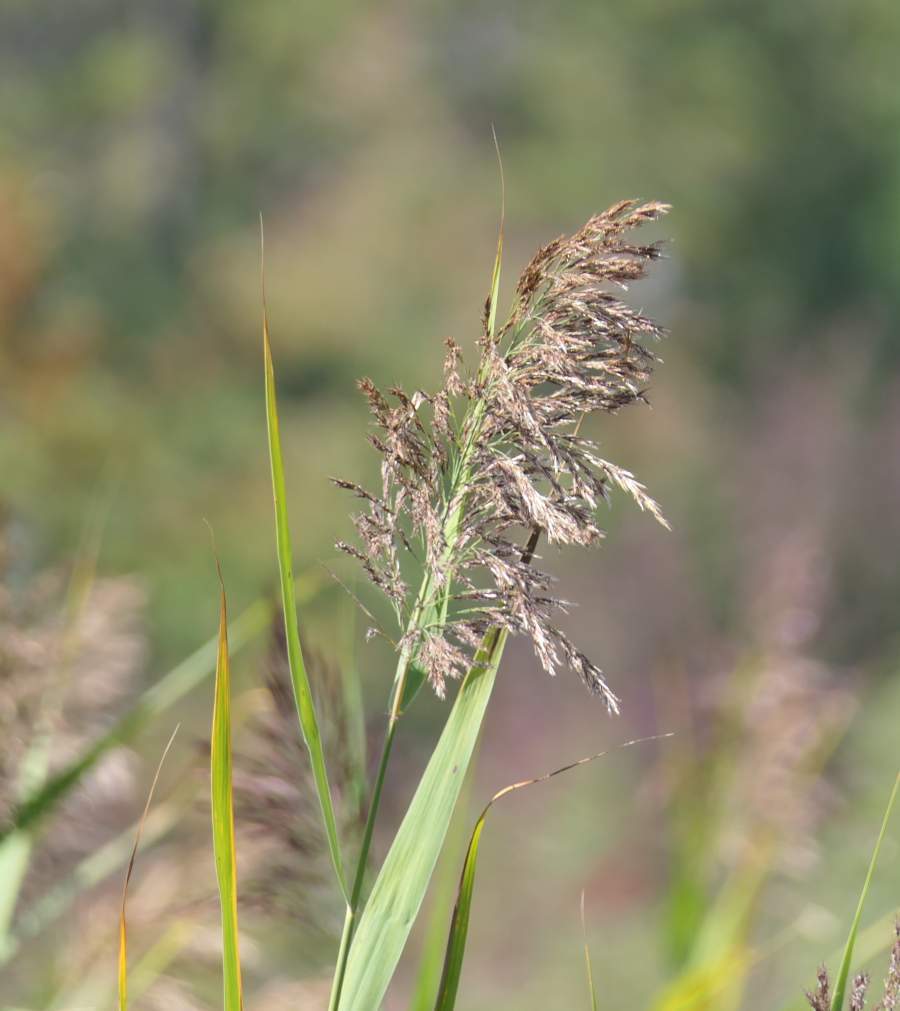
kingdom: Plantae
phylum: Tracheophyta
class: Liliopsida
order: Poales
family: Poaceae
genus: Phragmites
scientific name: Phragmites australis
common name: Common reed
